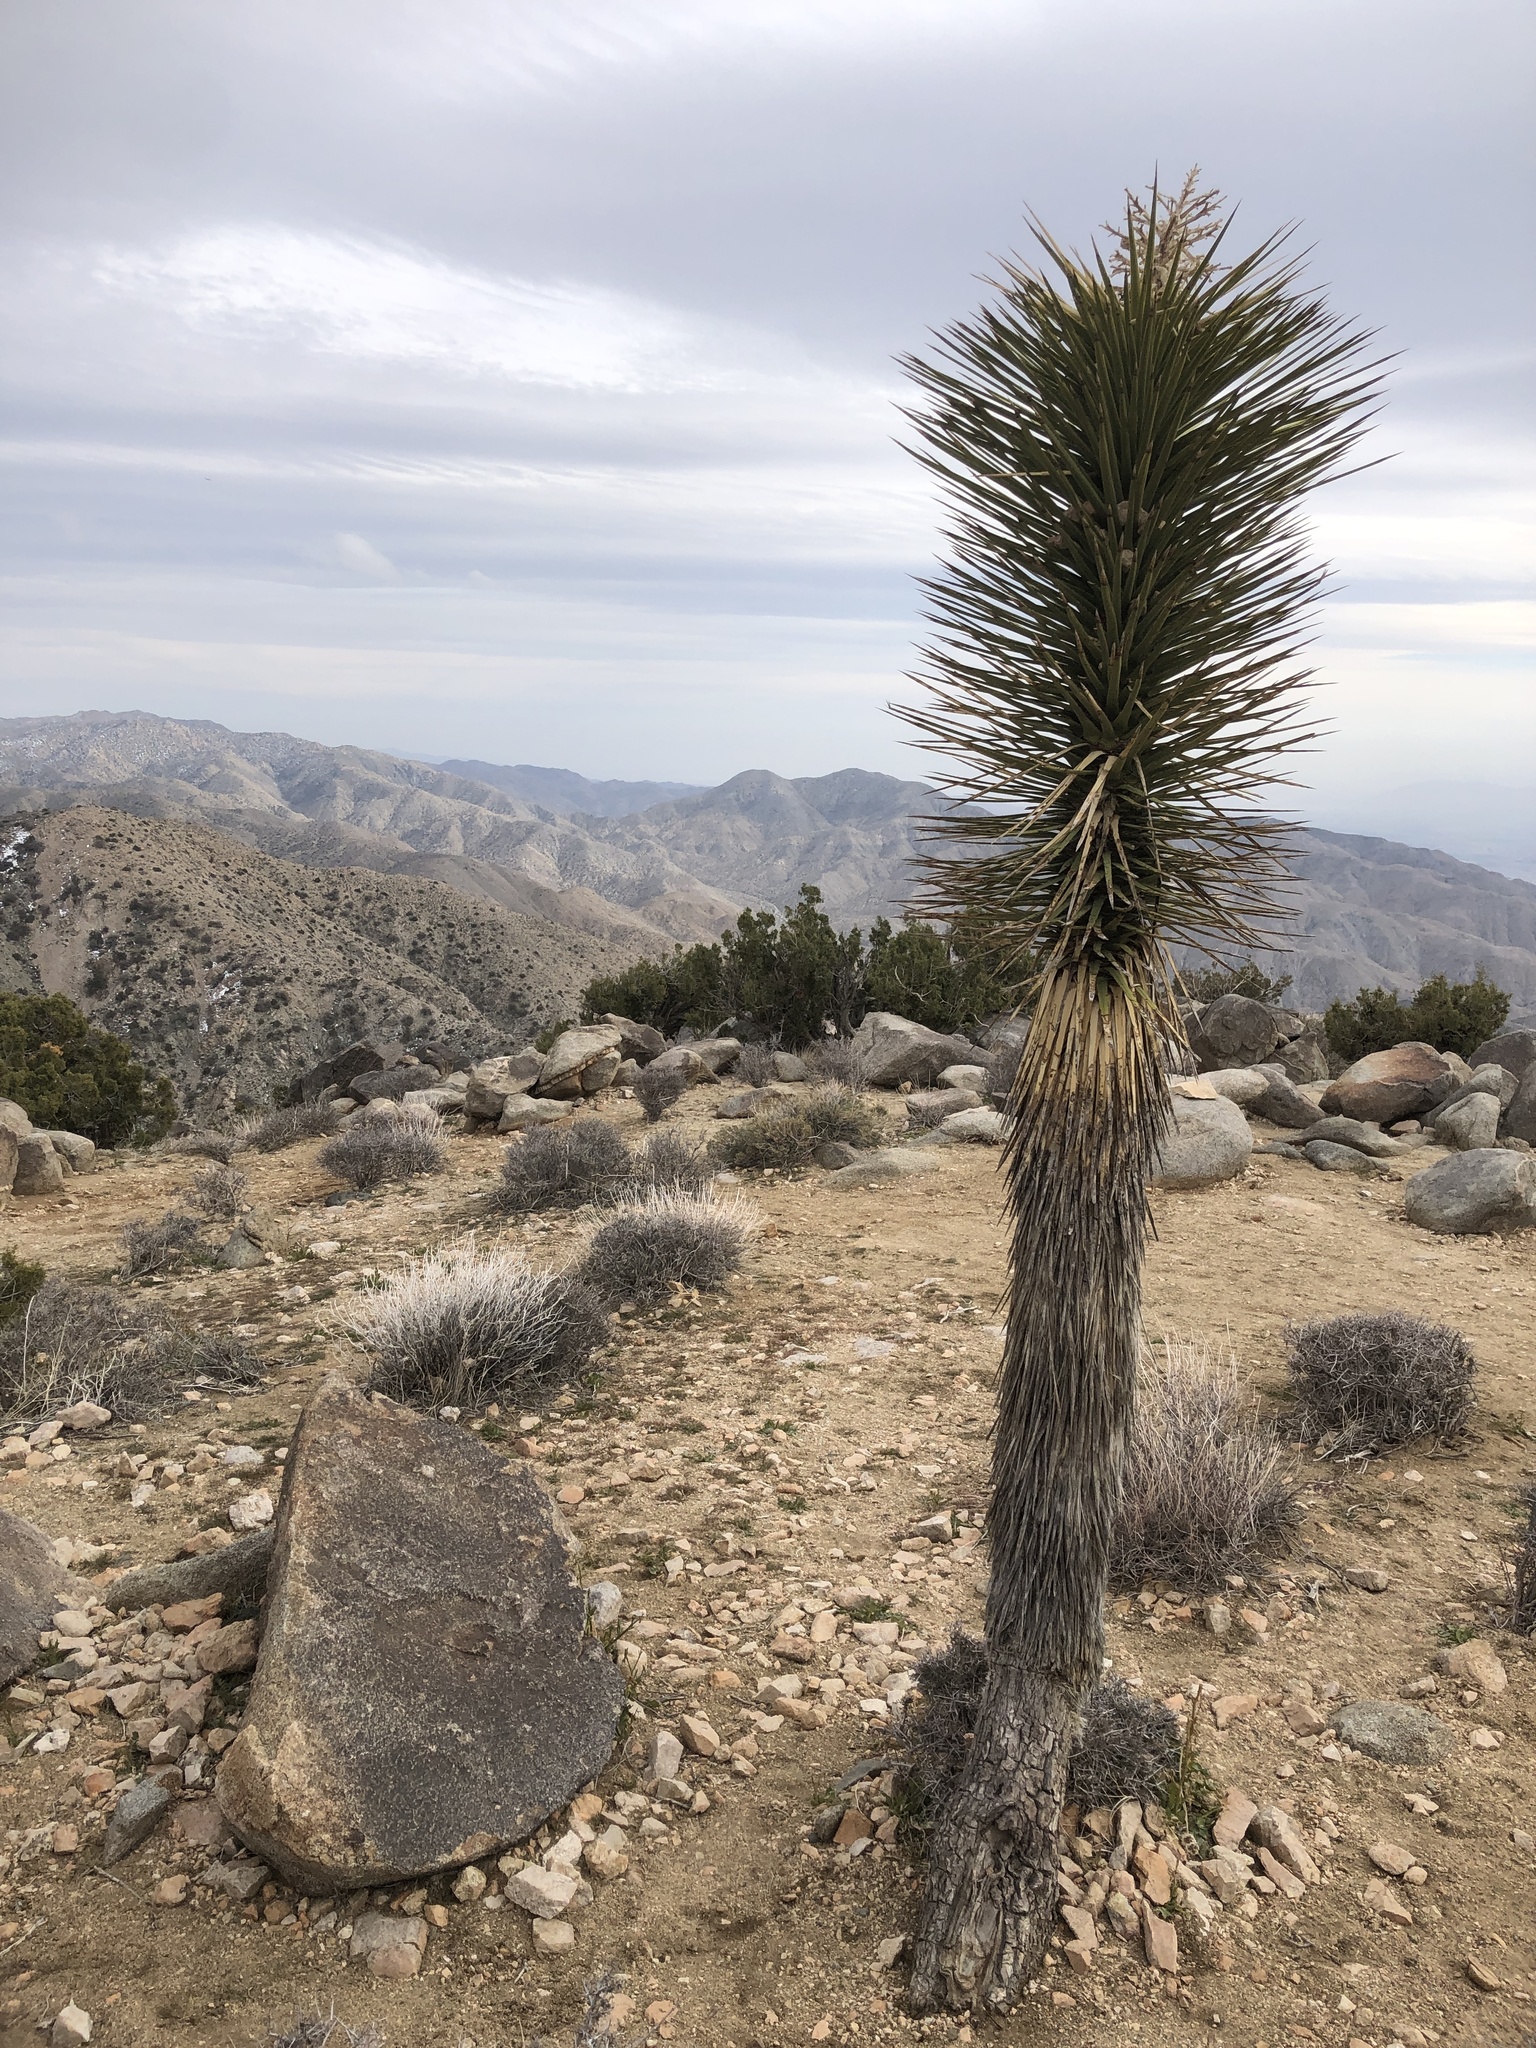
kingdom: Plantae
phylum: Tracheophyta
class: Liliopsida
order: Asparagales
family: Asparagaceae
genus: Yucca
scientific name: Yucca brevifolia
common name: Joshua tree
